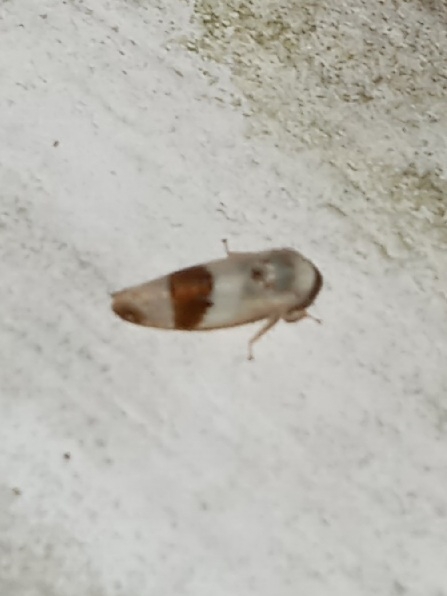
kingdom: Animalia
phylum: Arthropoda
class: Insecta
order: Hemiptera
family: Cicadellidae
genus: Norvellina
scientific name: Norvellina seminuda
